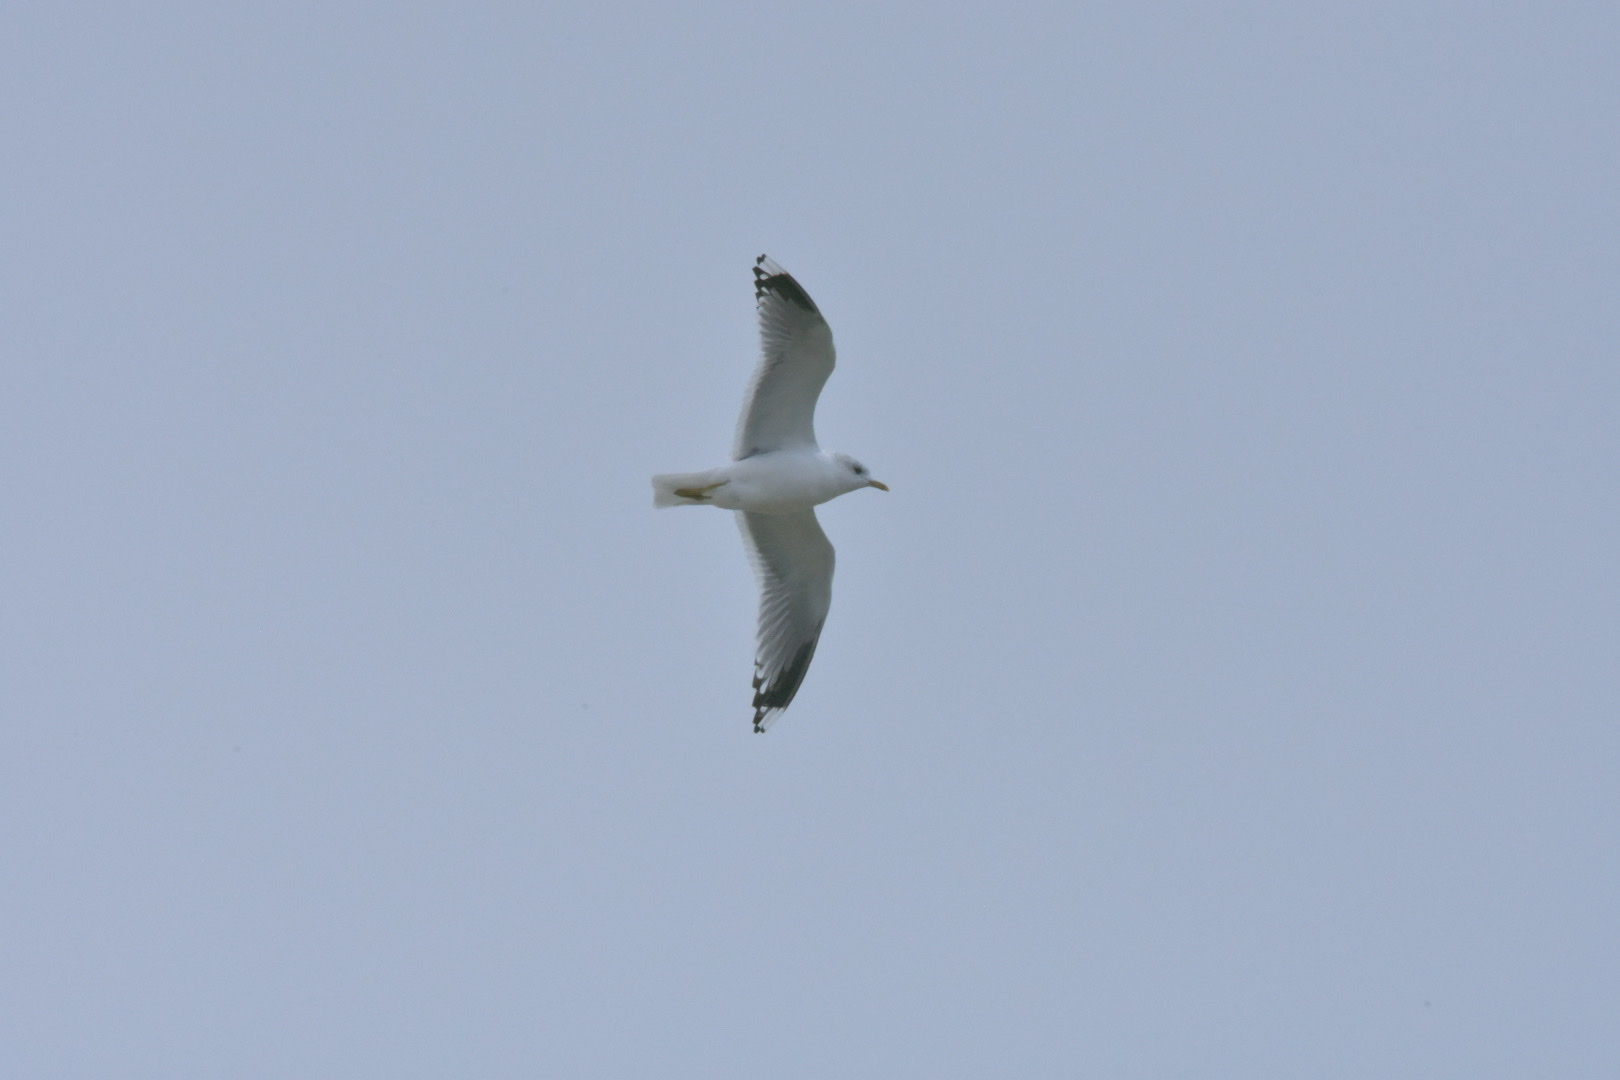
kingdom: Animalia
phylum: Chordata
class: Aves
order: Charadriiformes
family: Laridae
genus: Larus
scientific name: Larus canus
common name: Mew gull
